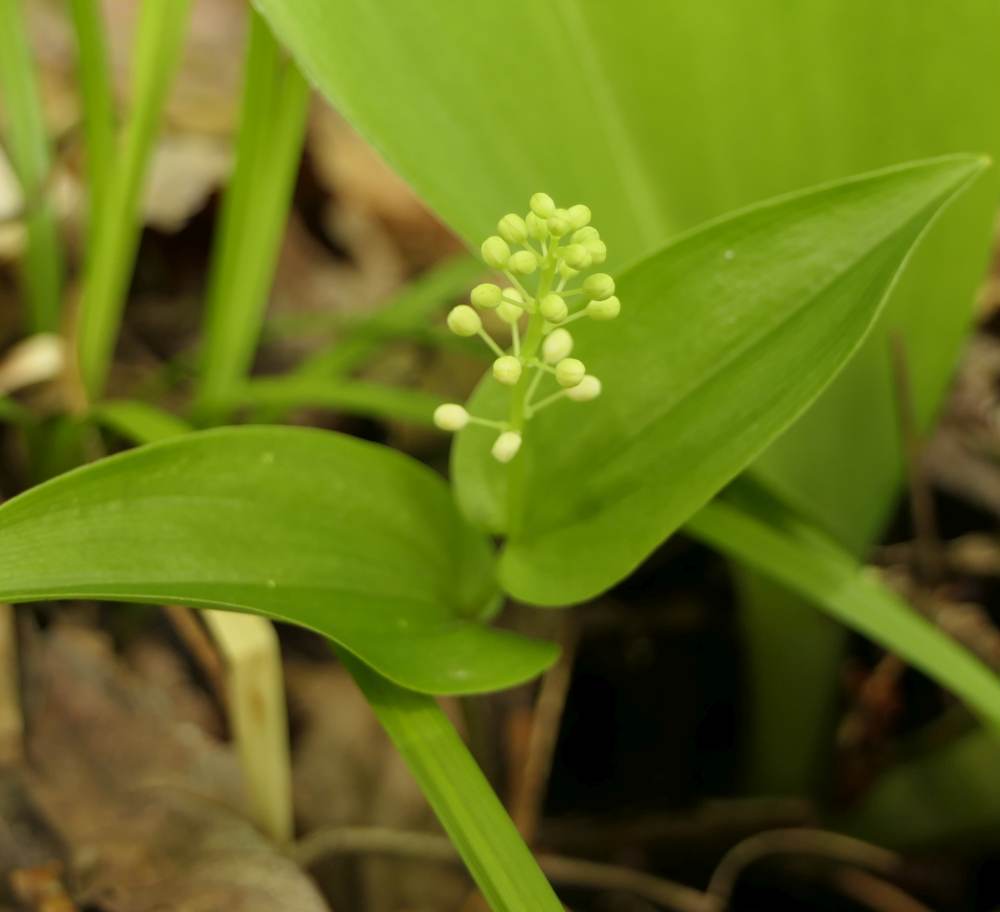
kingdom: Plantae
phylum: Tracheophyta
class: Liliopsida
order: Asparagales
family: Asparagaceae
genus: Maianthemum
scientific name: Maianthemum canadense
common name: False lily-of-the-valley
